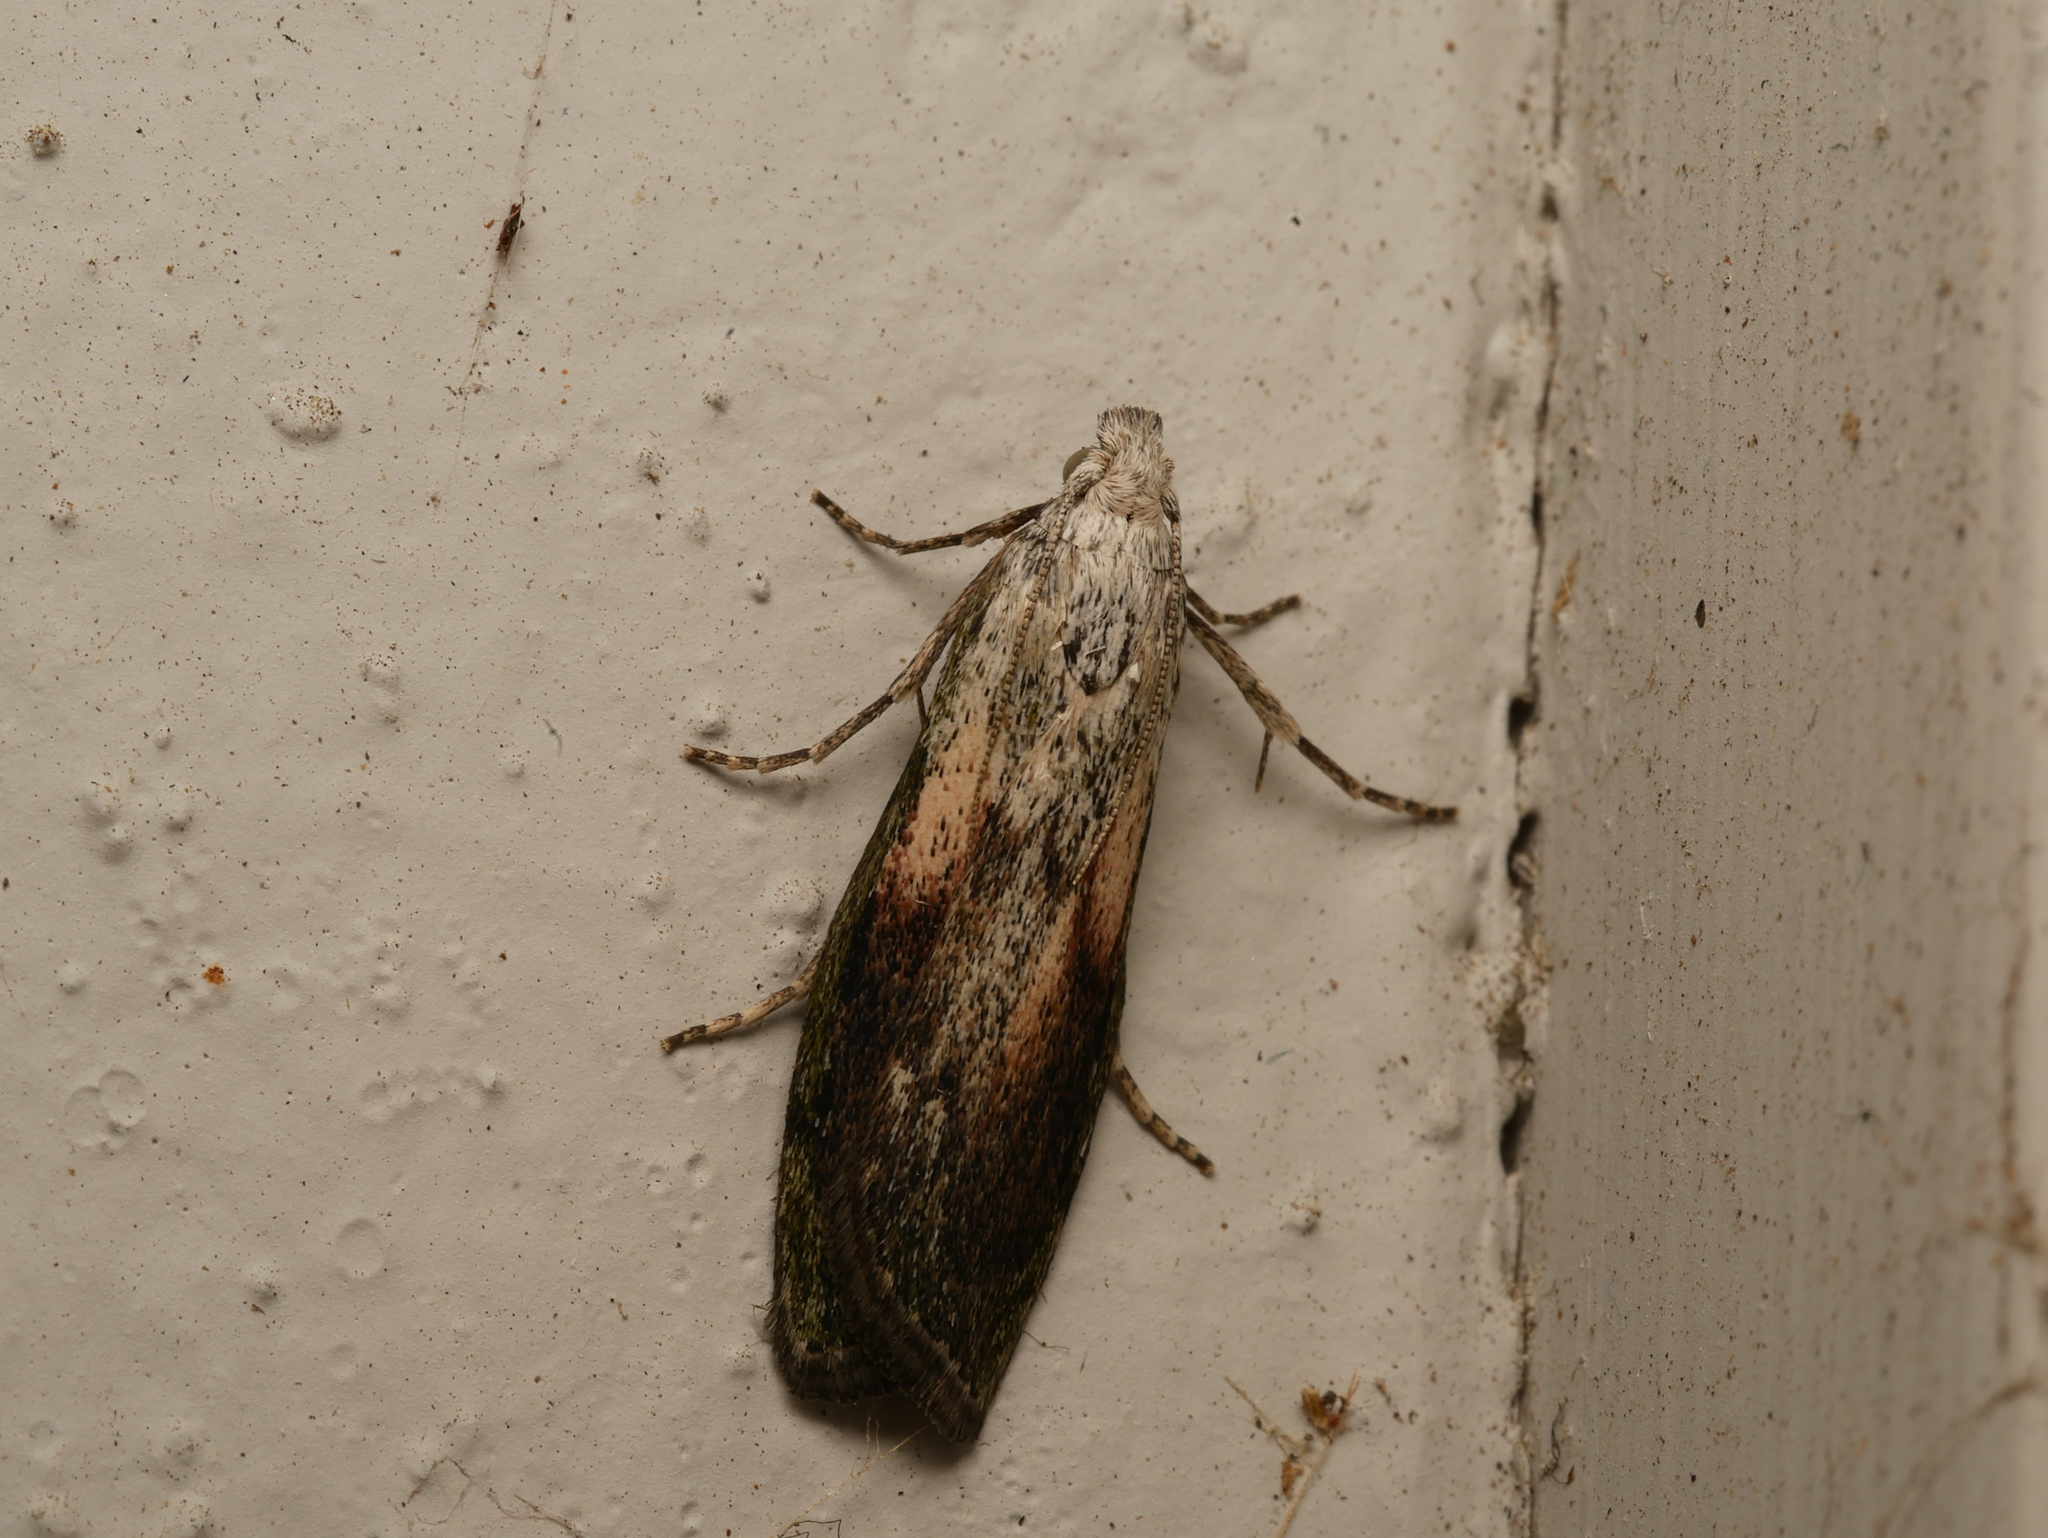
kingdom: Animalia
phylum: Arthropoda
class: Insecta
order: Lepidoptera
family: Pyralidae
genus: Aphomia
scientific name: Aphomia sociella
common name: Bee moth
